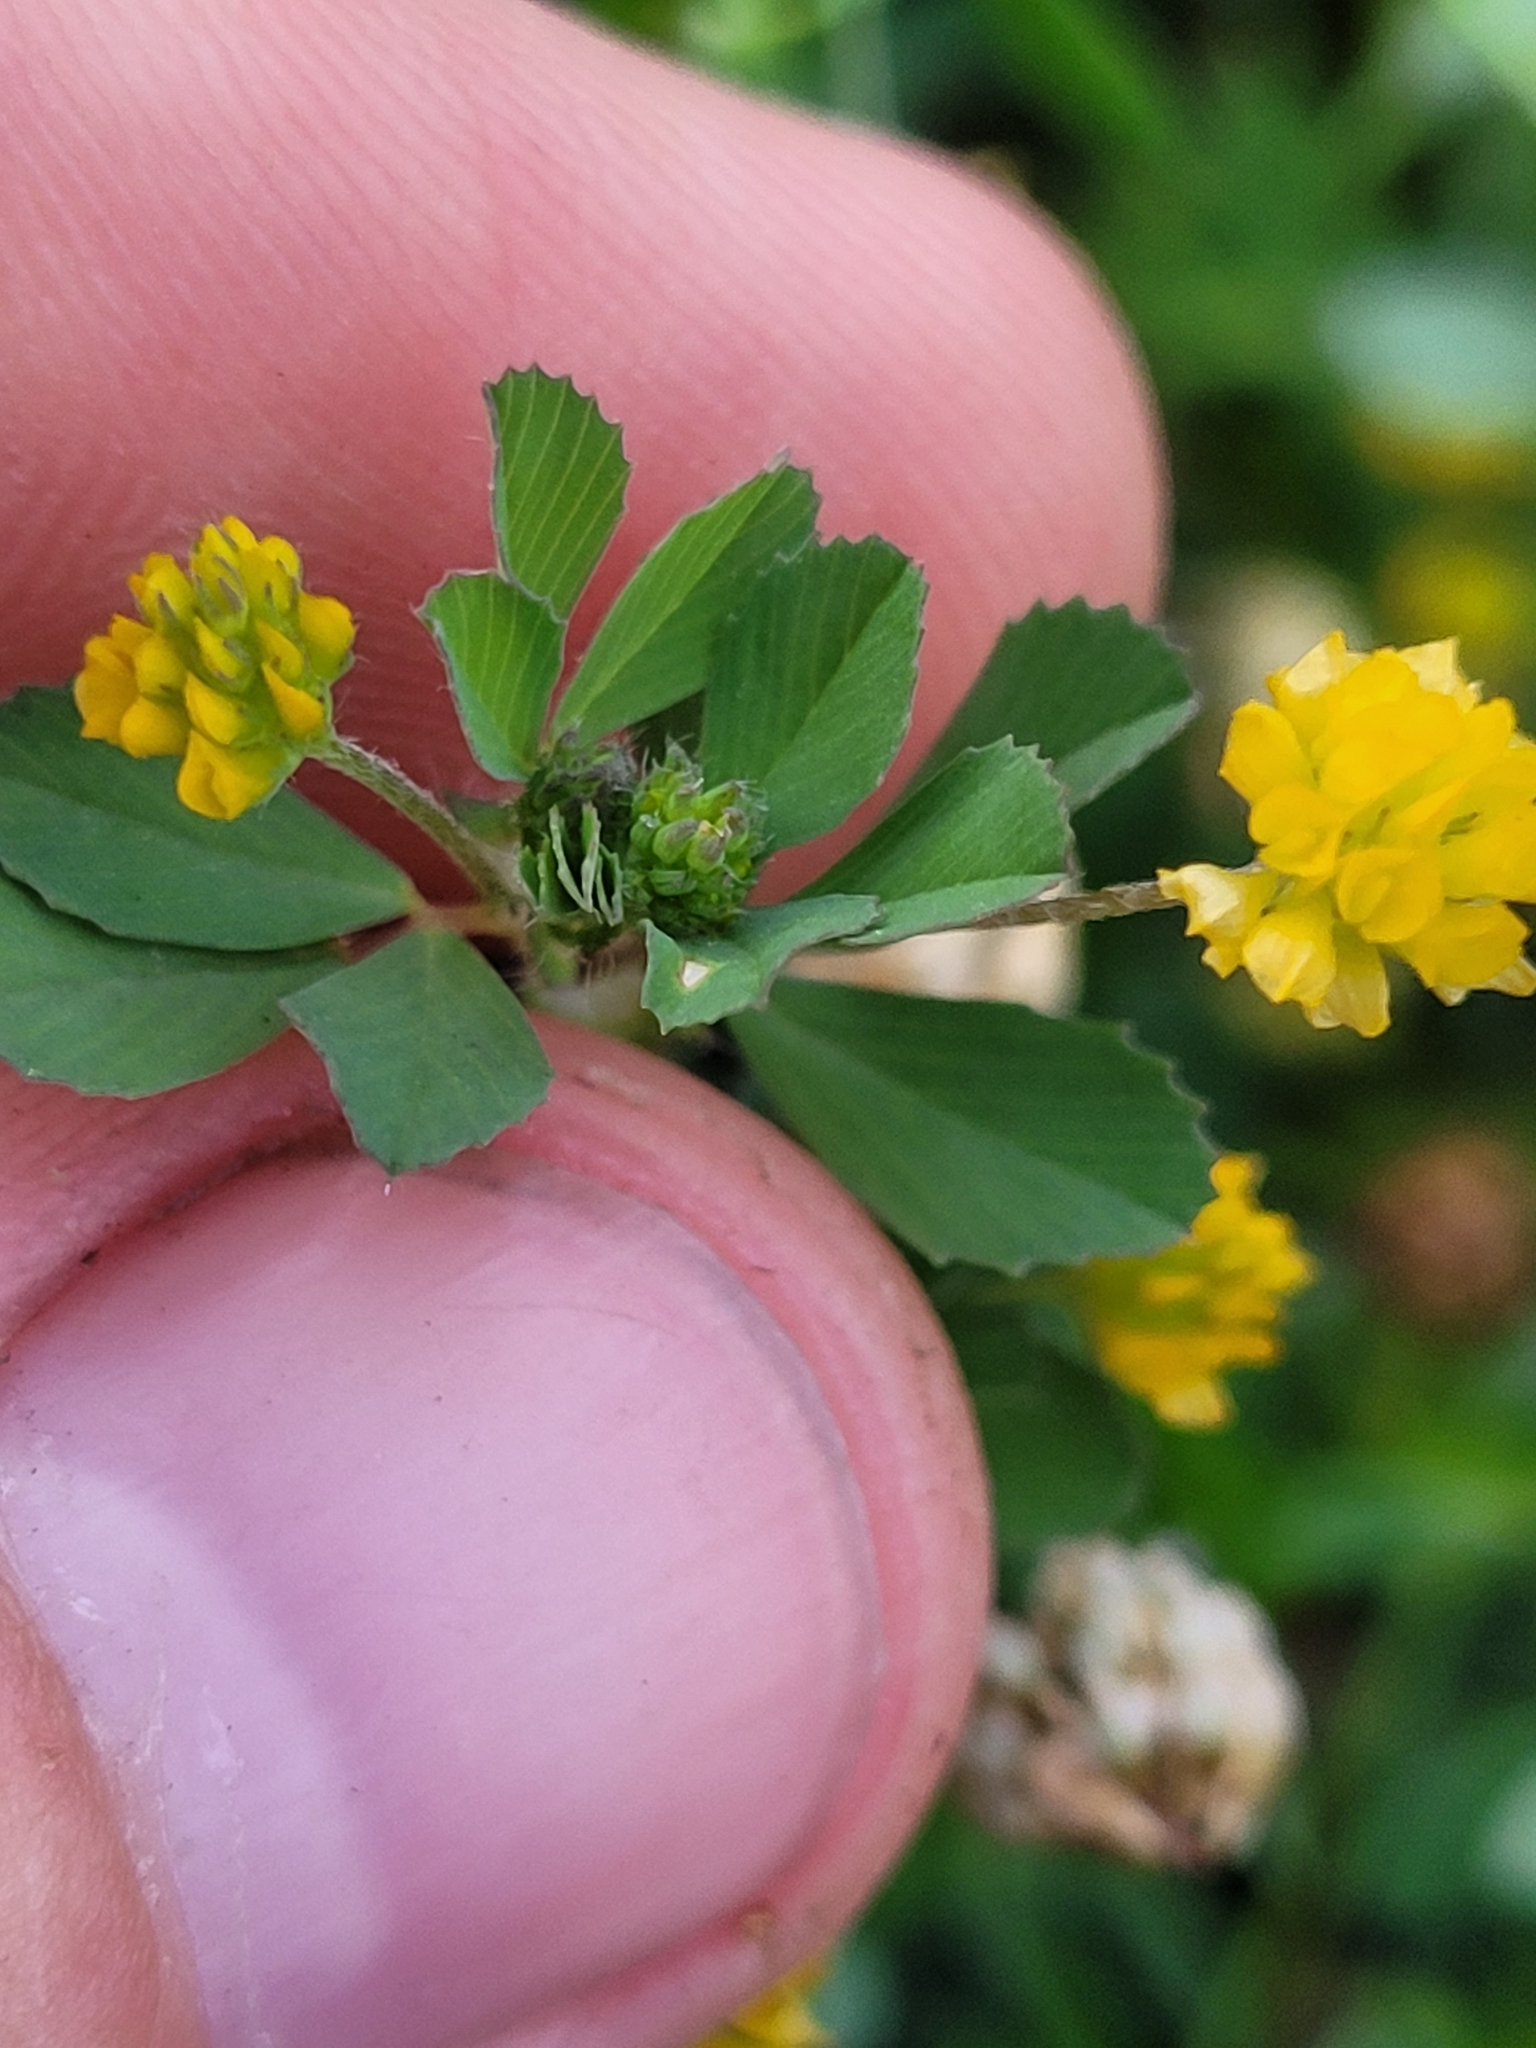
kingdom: Plantae
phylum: Tracheophyta
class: Magnoliopsida
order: Fabales
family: Fabaceae
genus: Trifolium
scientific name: Trifolium dubium
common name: Suckling clover
